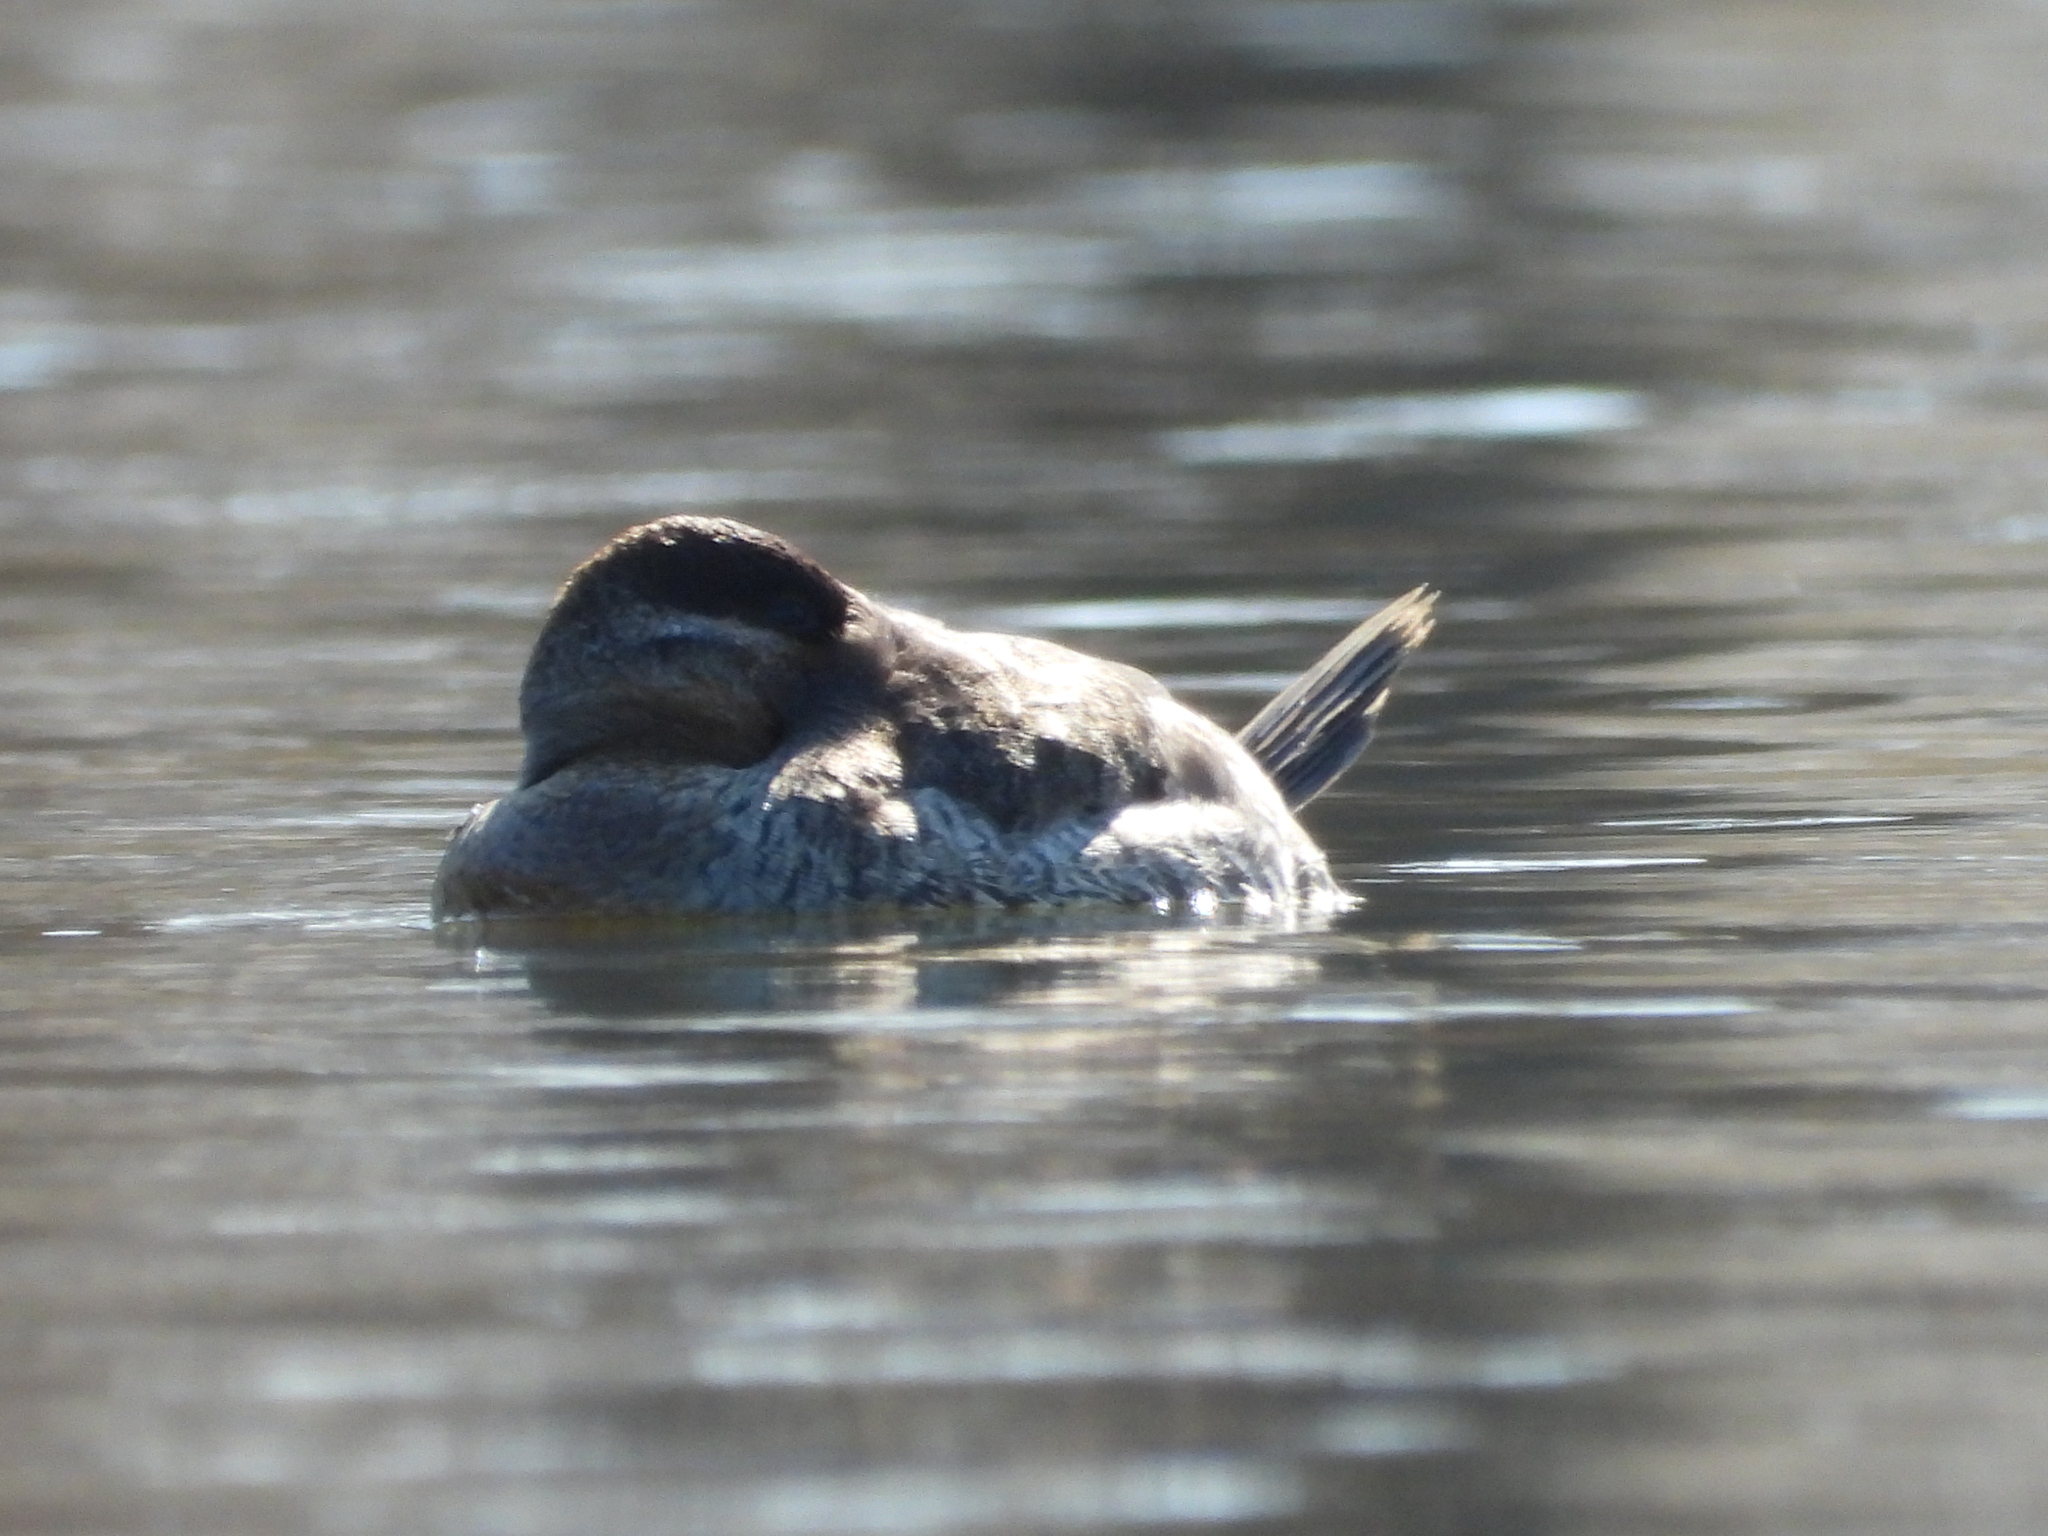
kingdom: Animalia
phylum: Chordata
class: Aves
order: Anseriformes
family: Anatidae
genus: Oxyura
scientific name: Oxyura jamaicensis
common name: Ruddy duck
